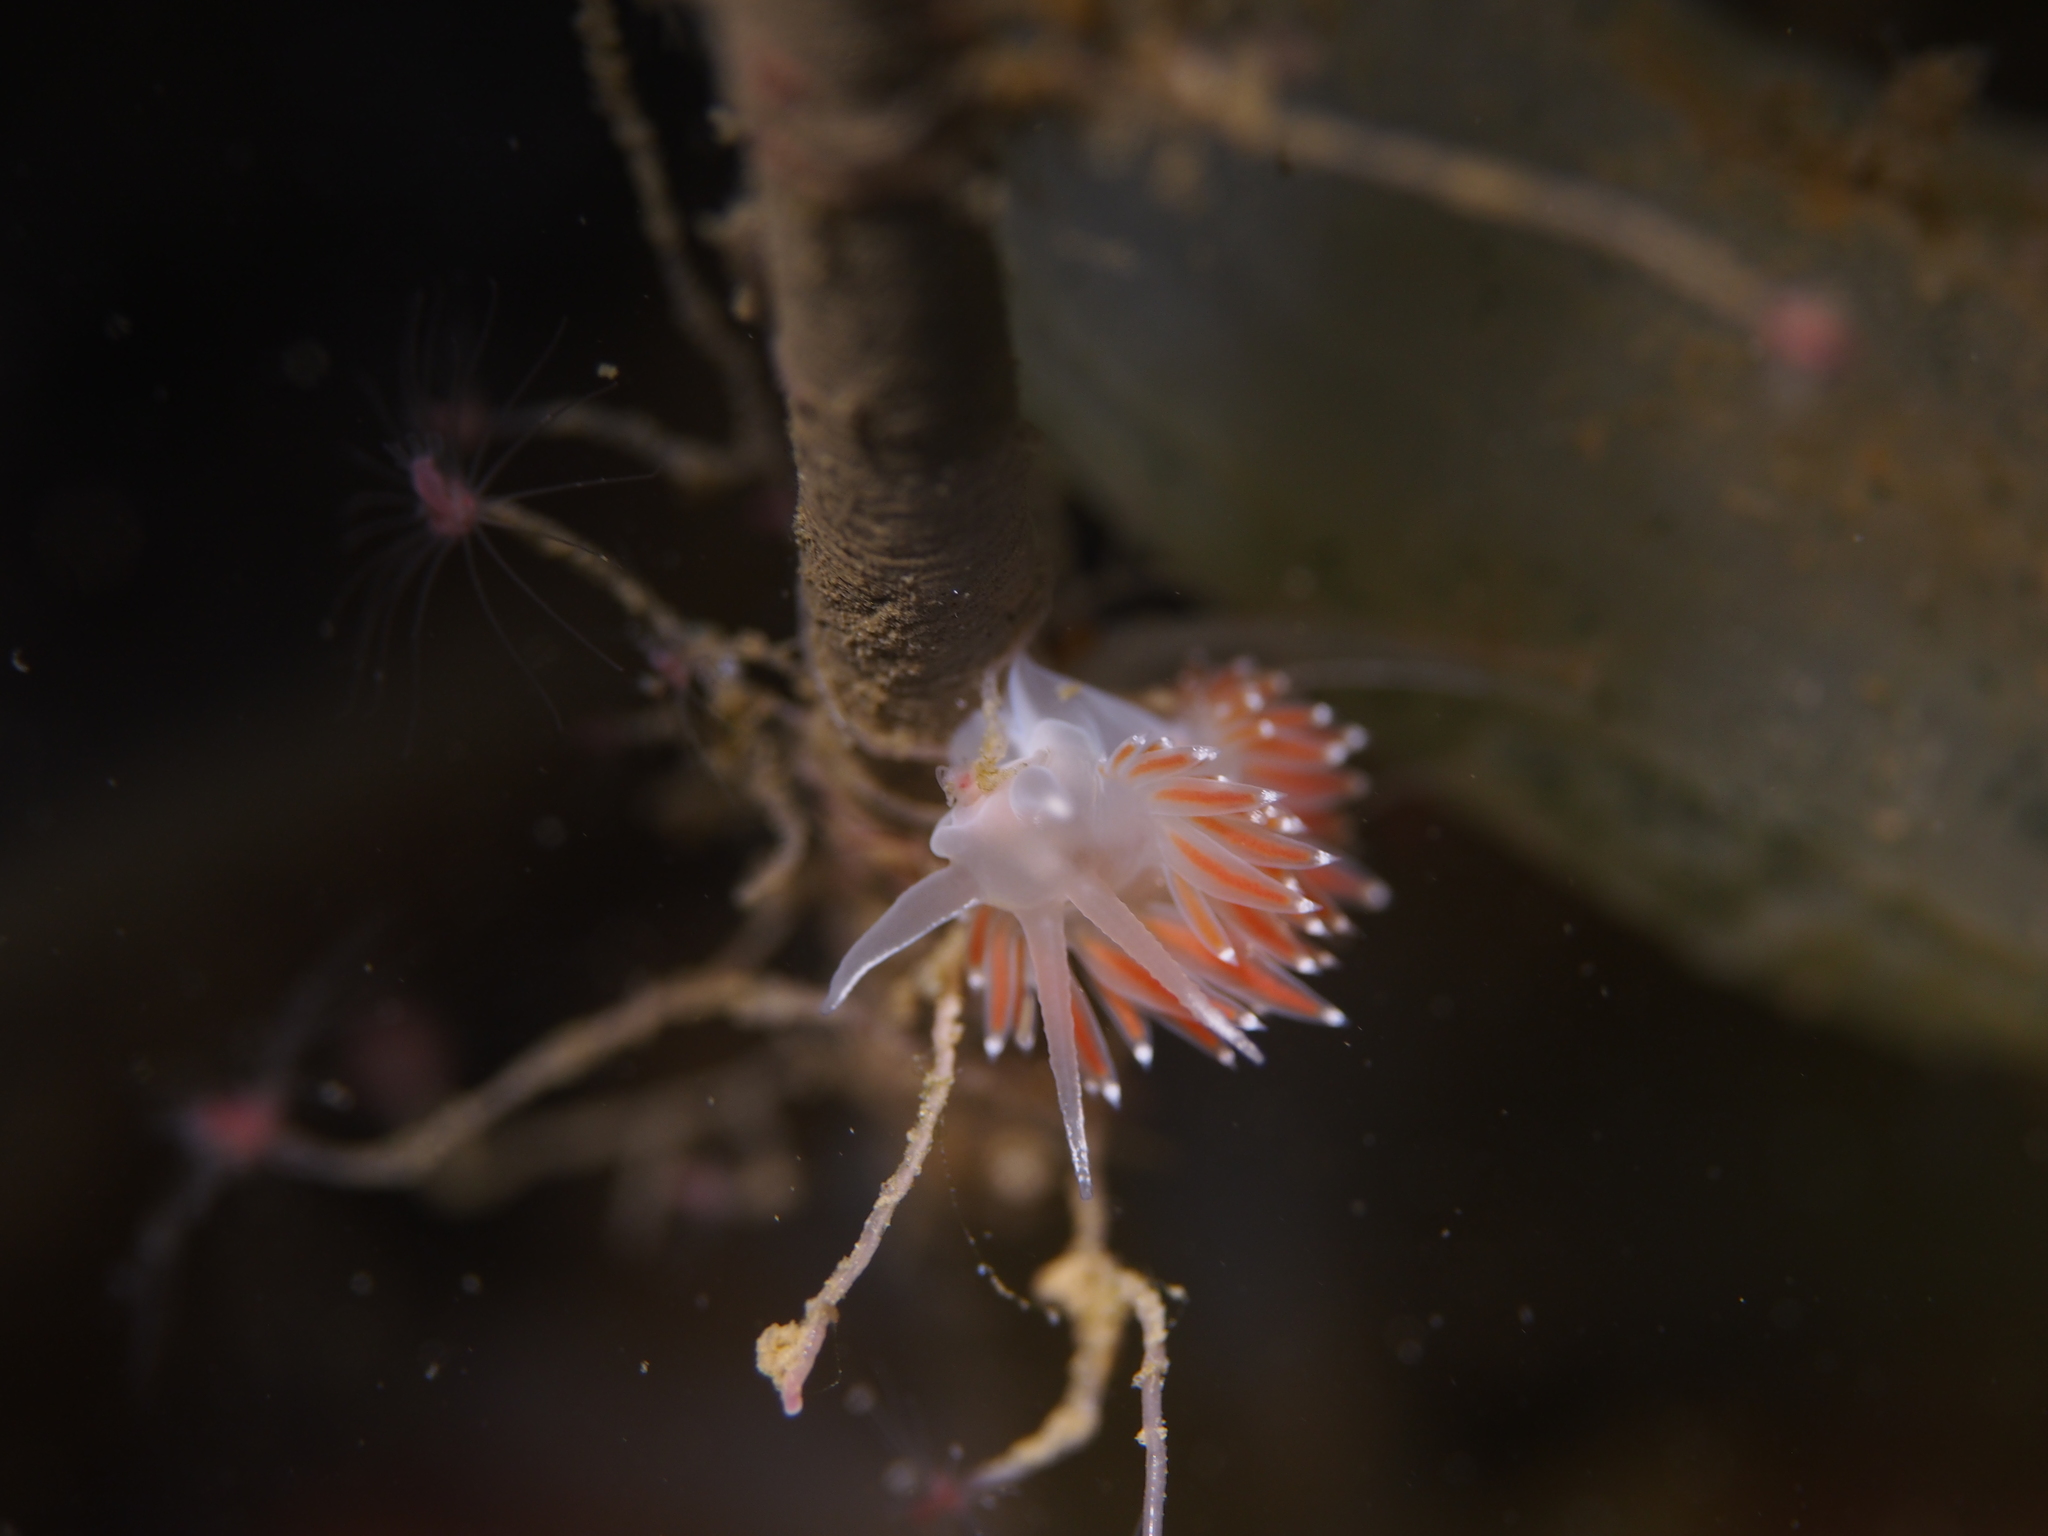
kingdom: Animalia
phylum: Mollusca
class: Gastropoda
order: Nudibranchia
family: Coryphellidae
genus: Coryphella
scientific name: Coryphella verrucosa
